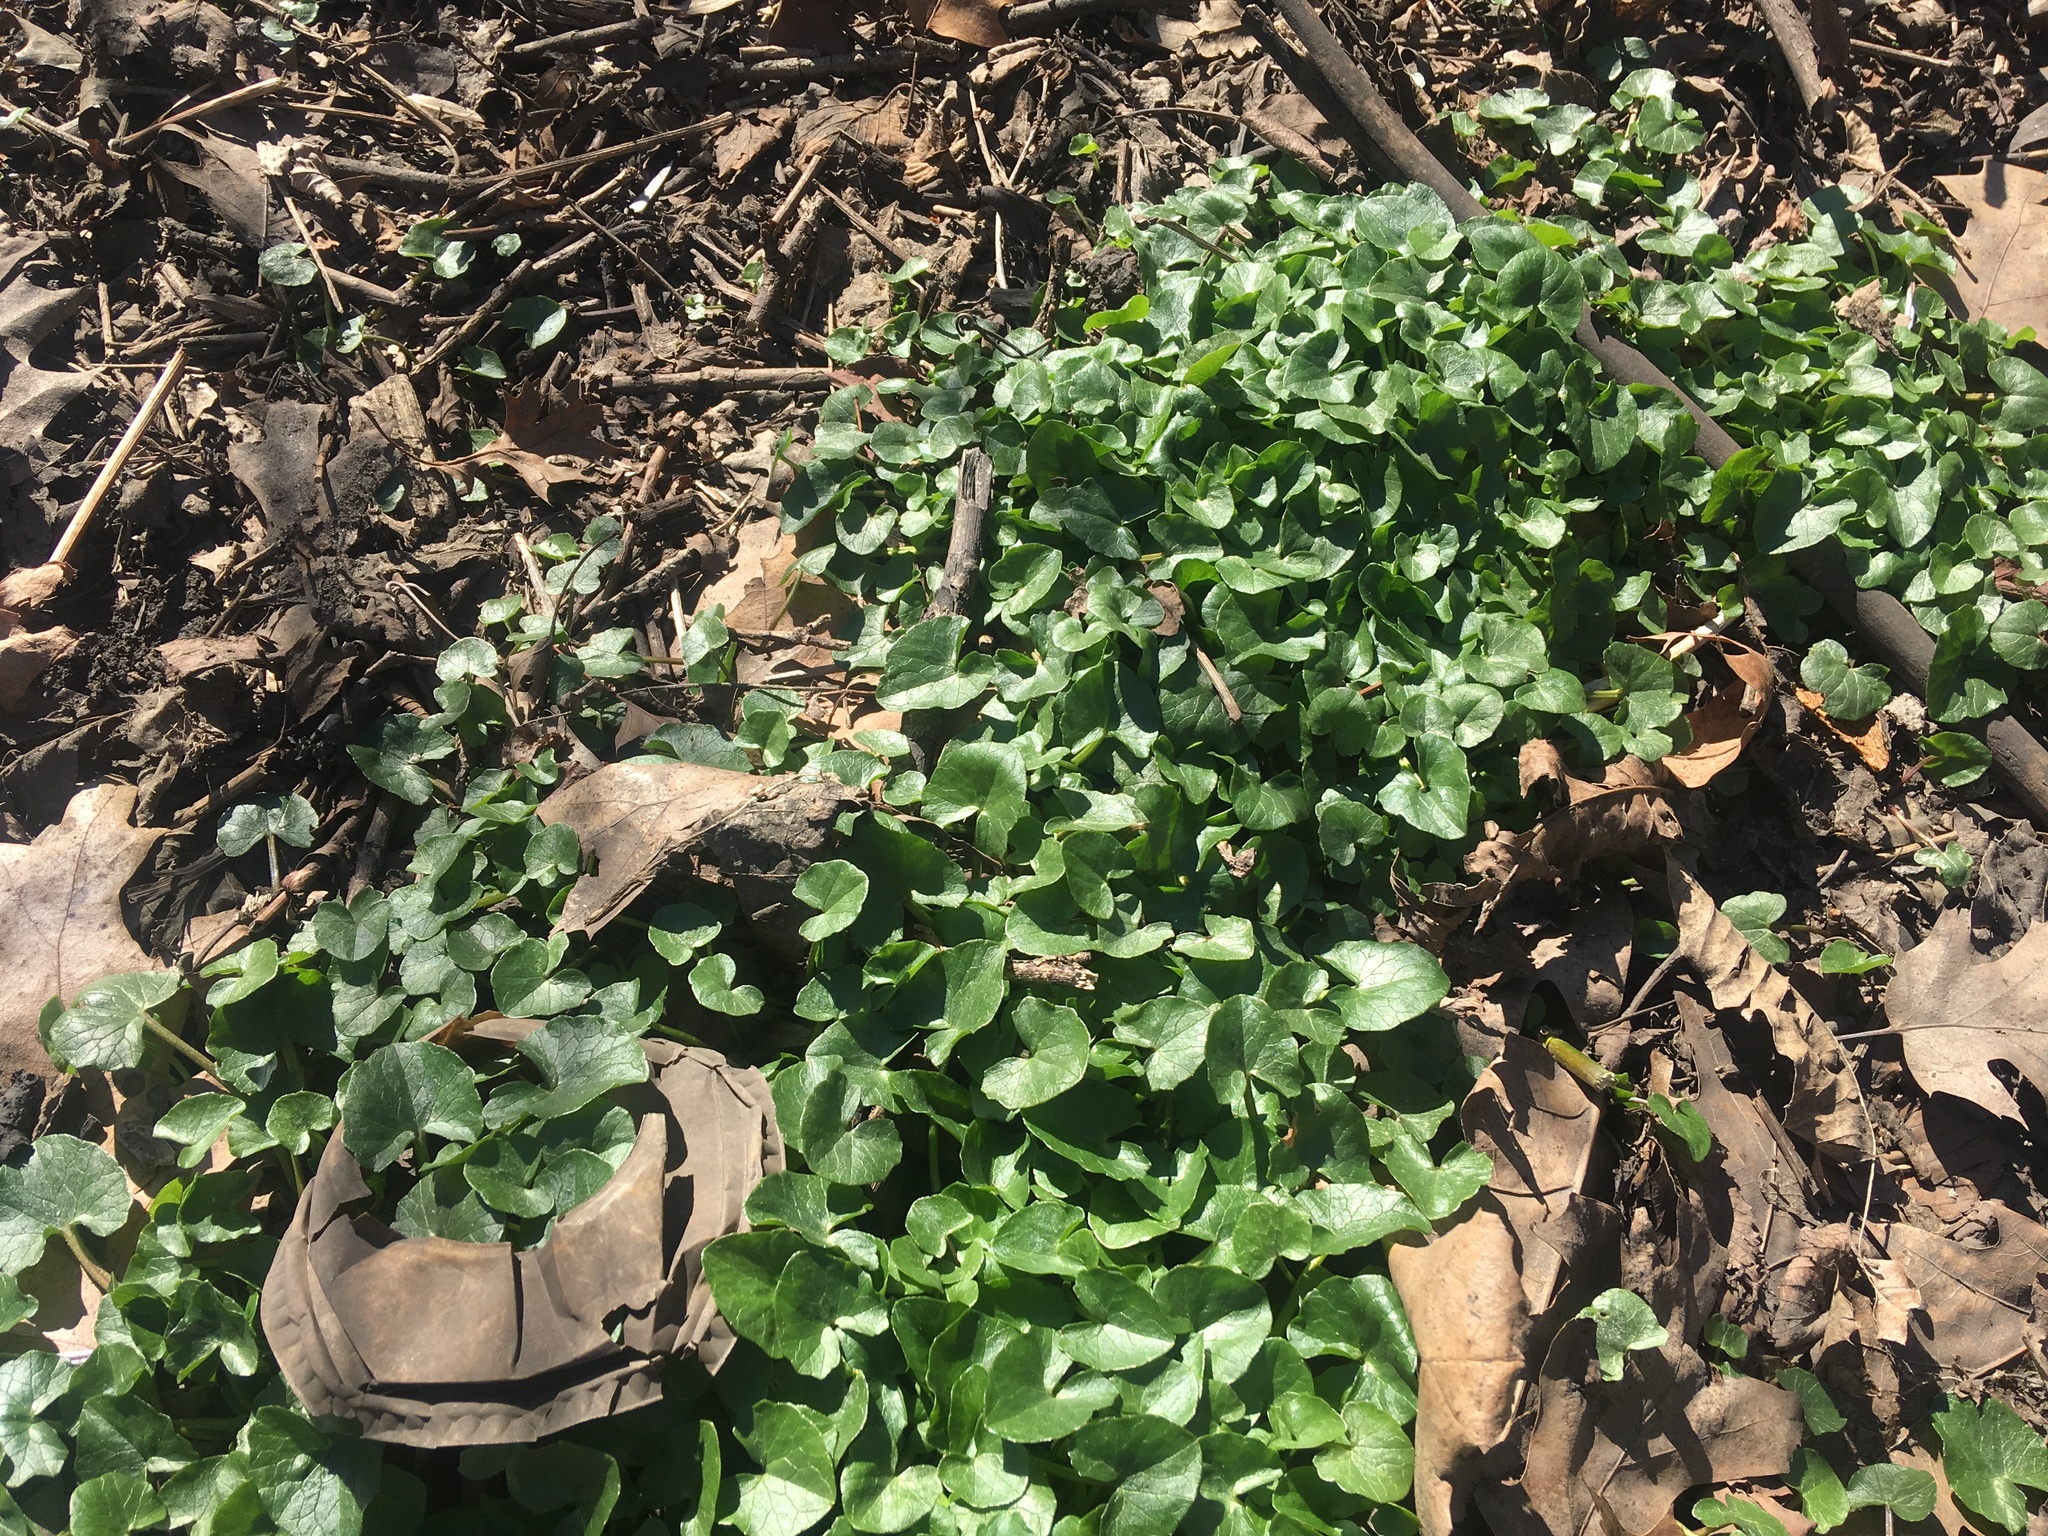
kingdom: Plantae
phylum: Tracheophyta
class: Magnoliopsida
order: Ranunculales
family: Ranunculaceae
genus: Ficaria
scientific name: Ficaria verna
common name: Lesser celandine
